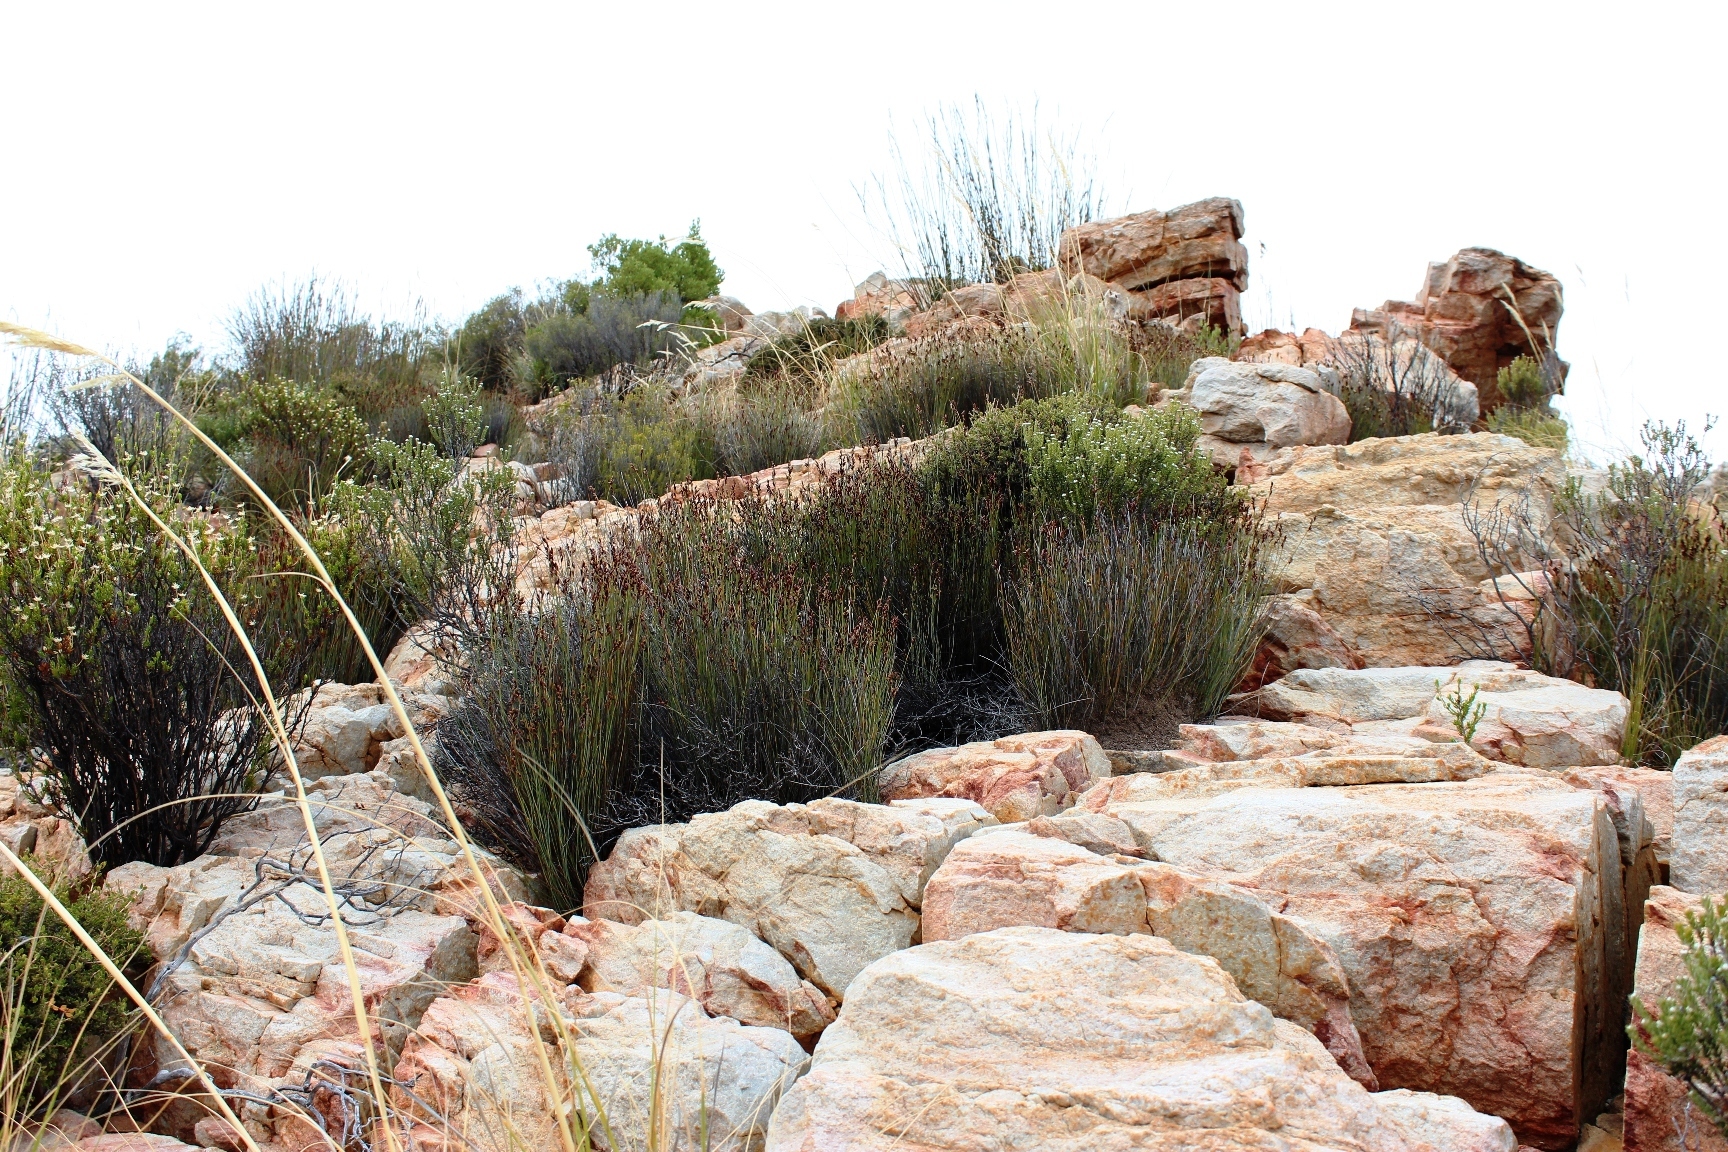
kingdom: Plantae
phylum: Tracheophyta
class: Liliopsida
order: Poales
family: Restionaceae
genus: Hypodiscus
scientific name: Hypodiscus striatus
